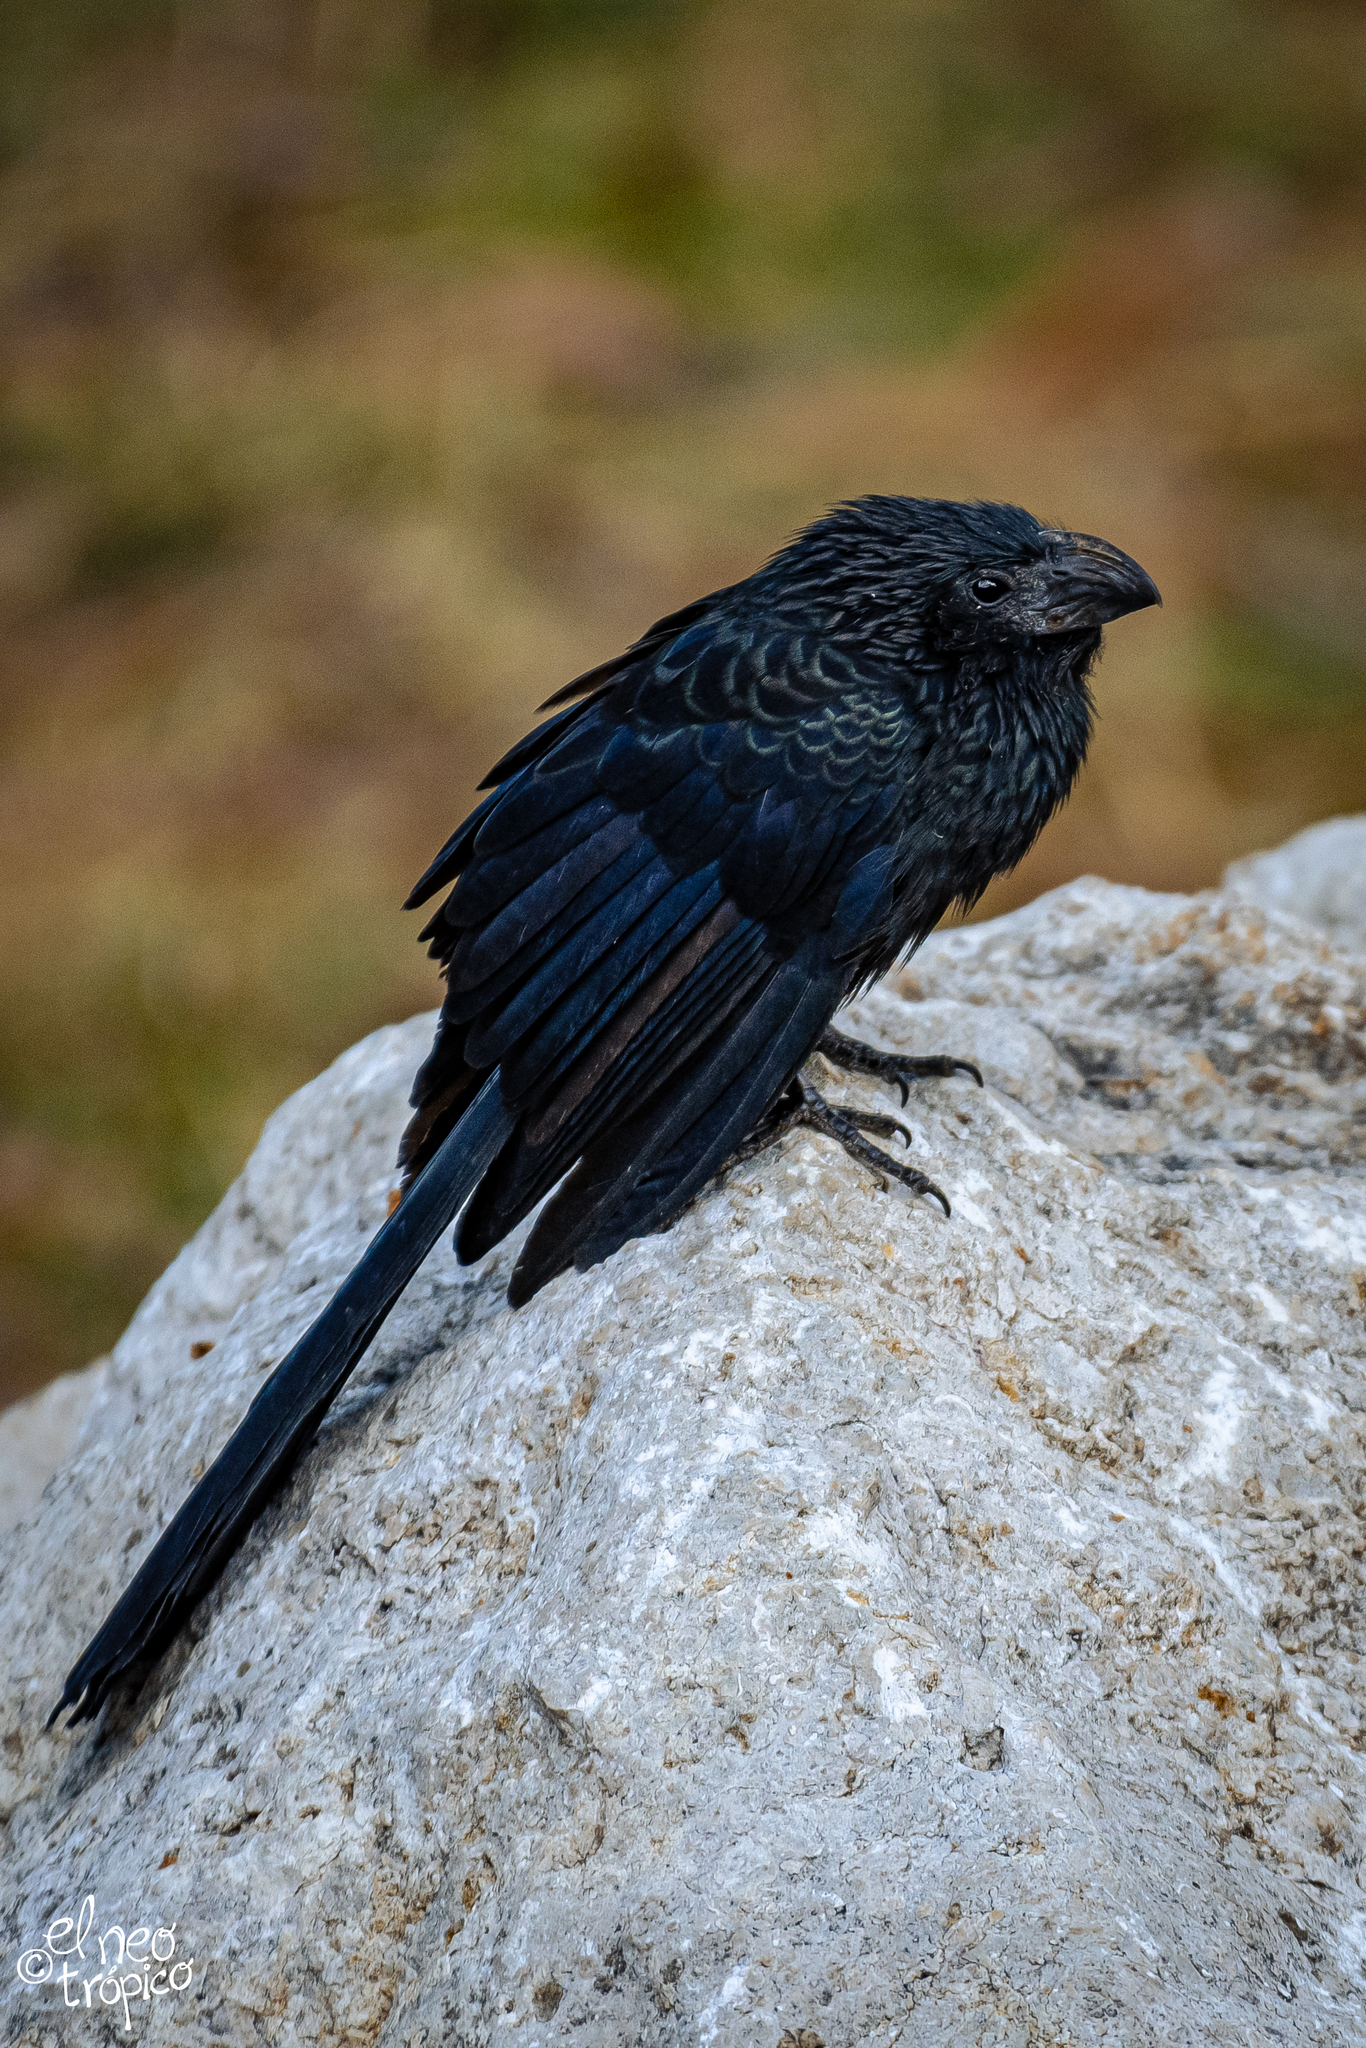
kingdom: Animalia
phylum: Chordata
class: Aves
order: Cuculiformes
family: Cuculidae
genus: Crotophaga
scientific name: Crotophaga sulcirostris
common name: Groove-billed ani
